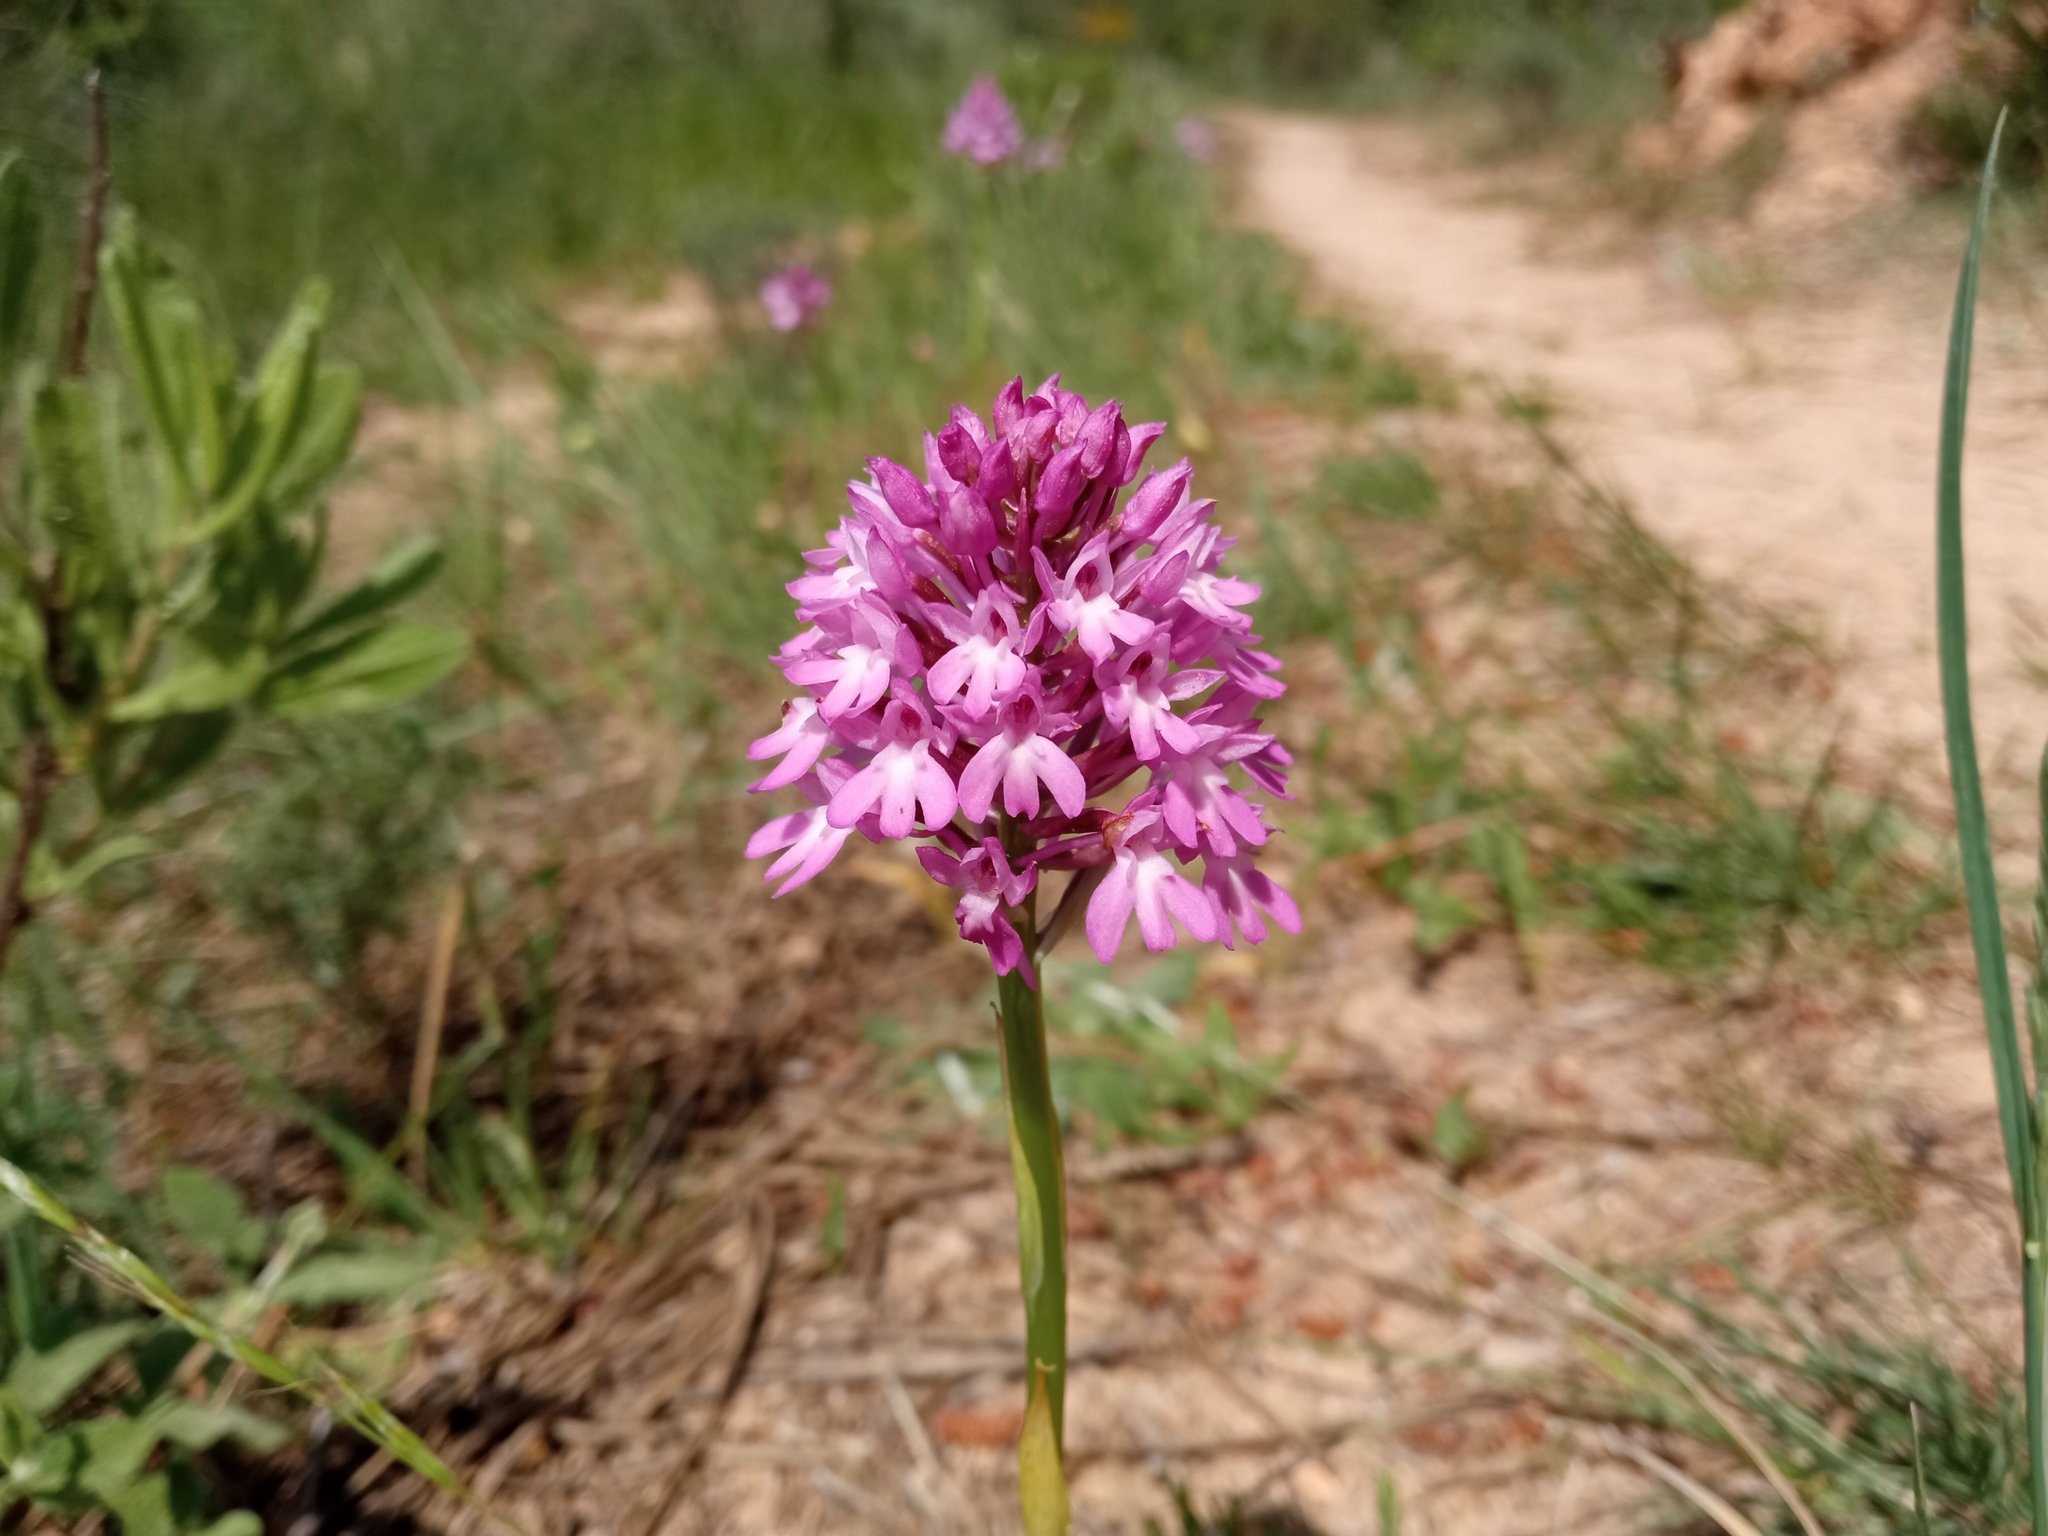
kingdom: Plantae
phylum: Tracheophyta
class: Liliopsida
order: Asparagales
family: Orchidaceae
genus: Anacamptis
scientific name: Anacamptis pyramidalis
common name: Pyramidal orchid
